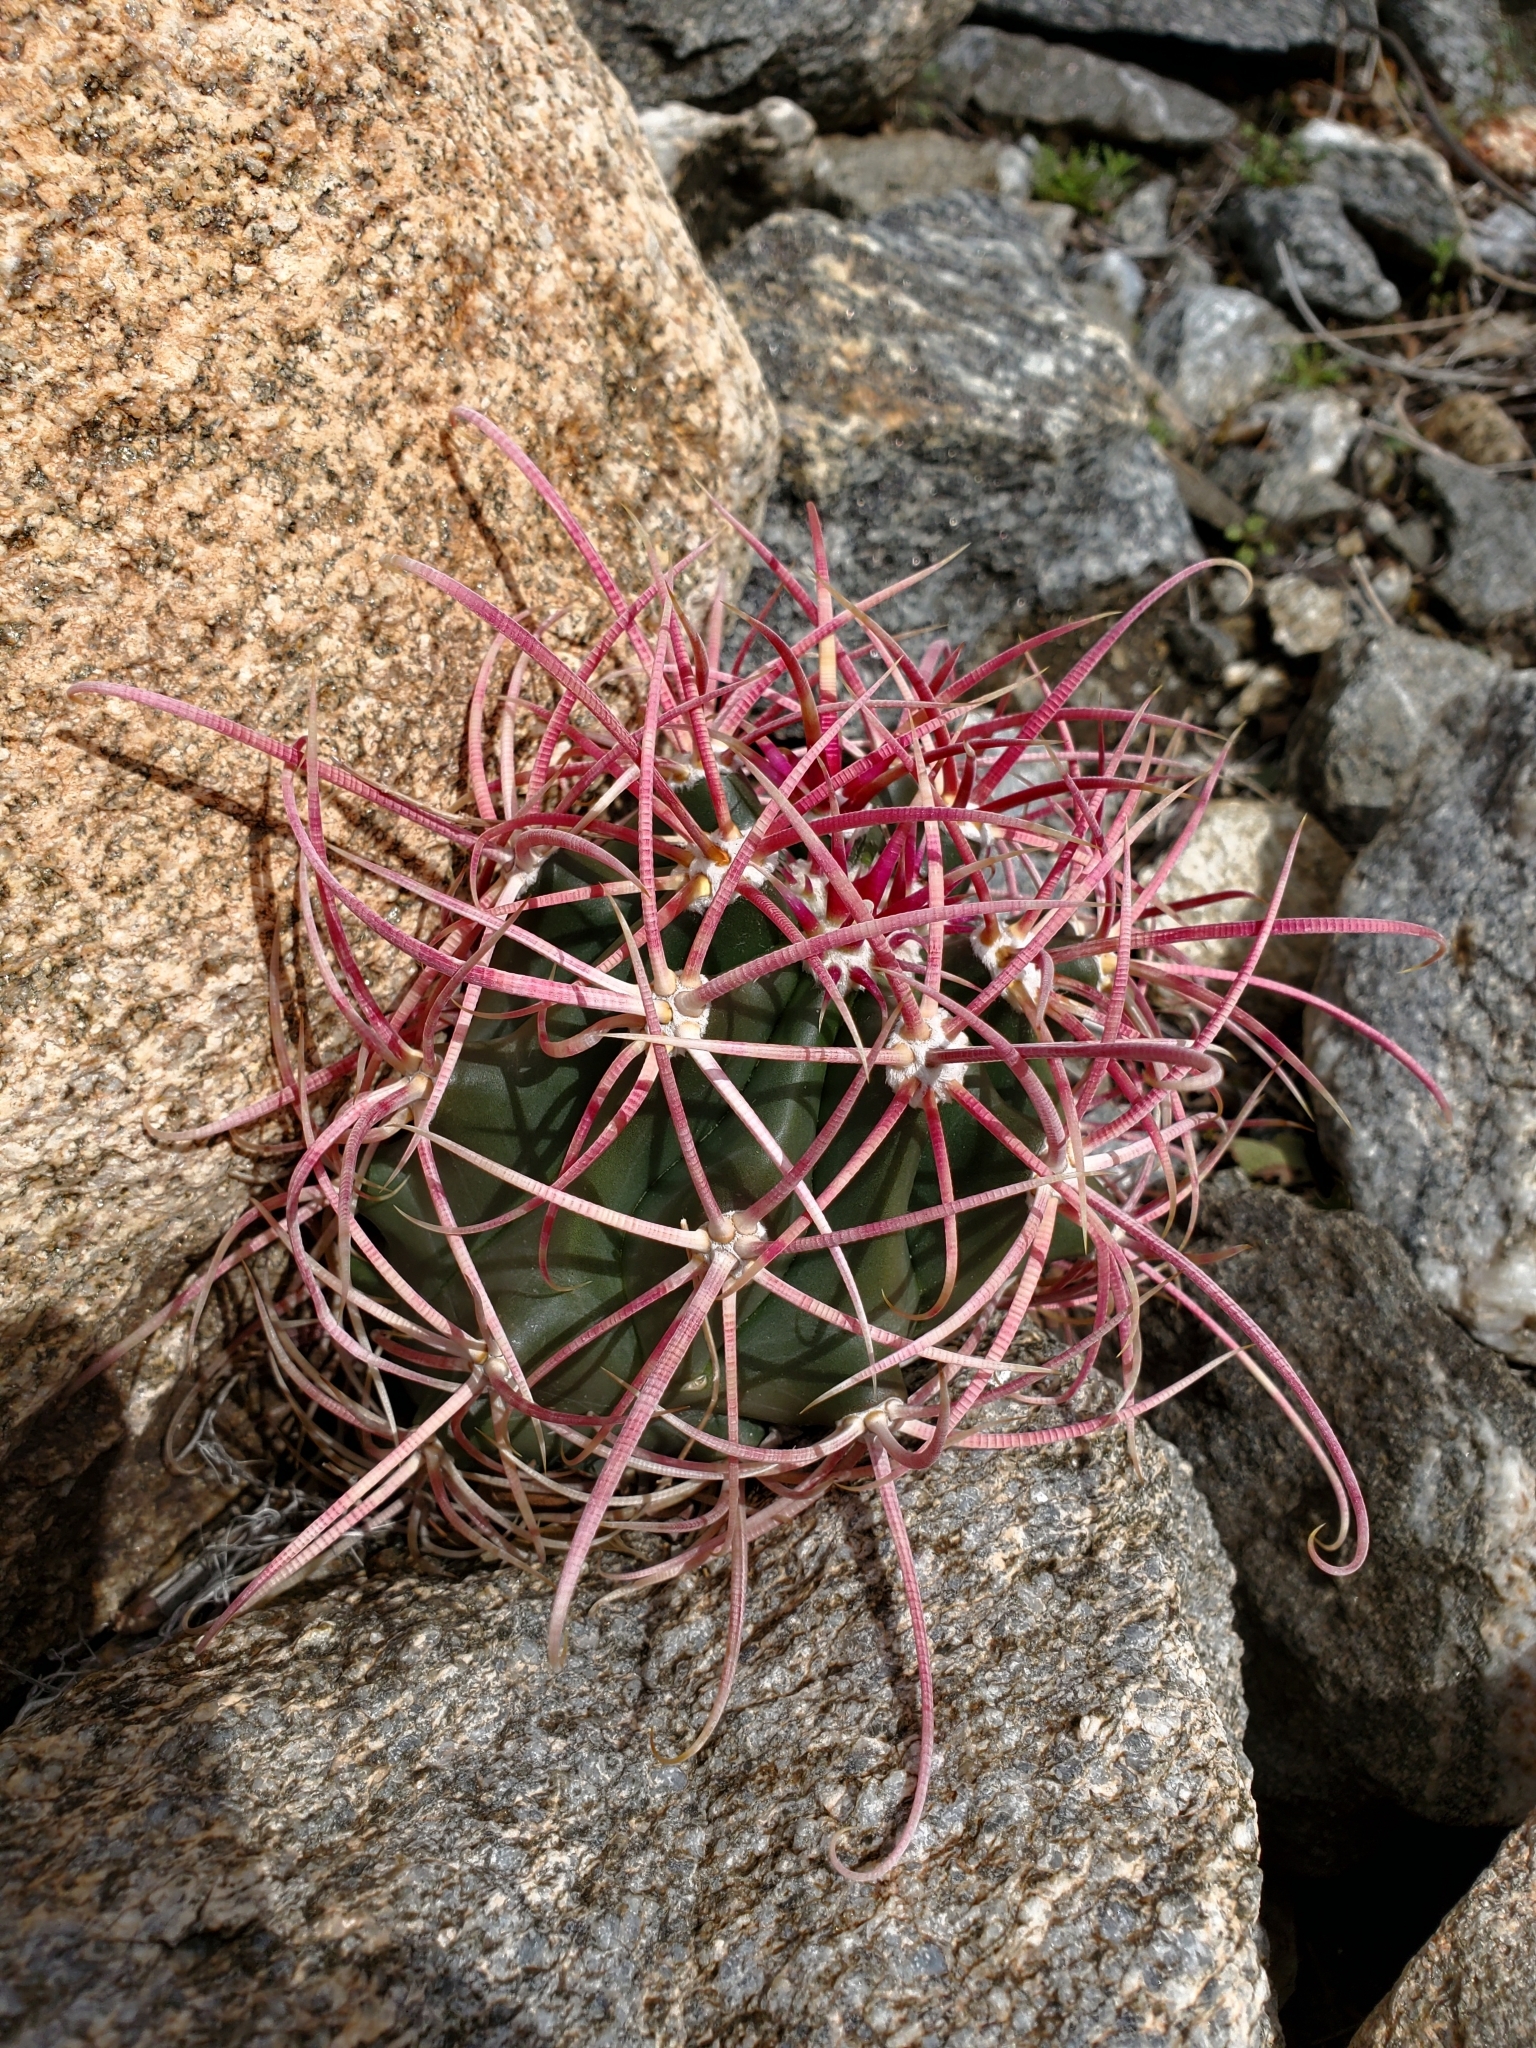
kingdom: Plantae
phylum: Tracheophyta
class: Magnoliopsida
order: Caryophyllales
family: Cactaceae
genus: Ferocactus
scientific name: Ferocactus cylindraceus
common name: California barrel cactus
